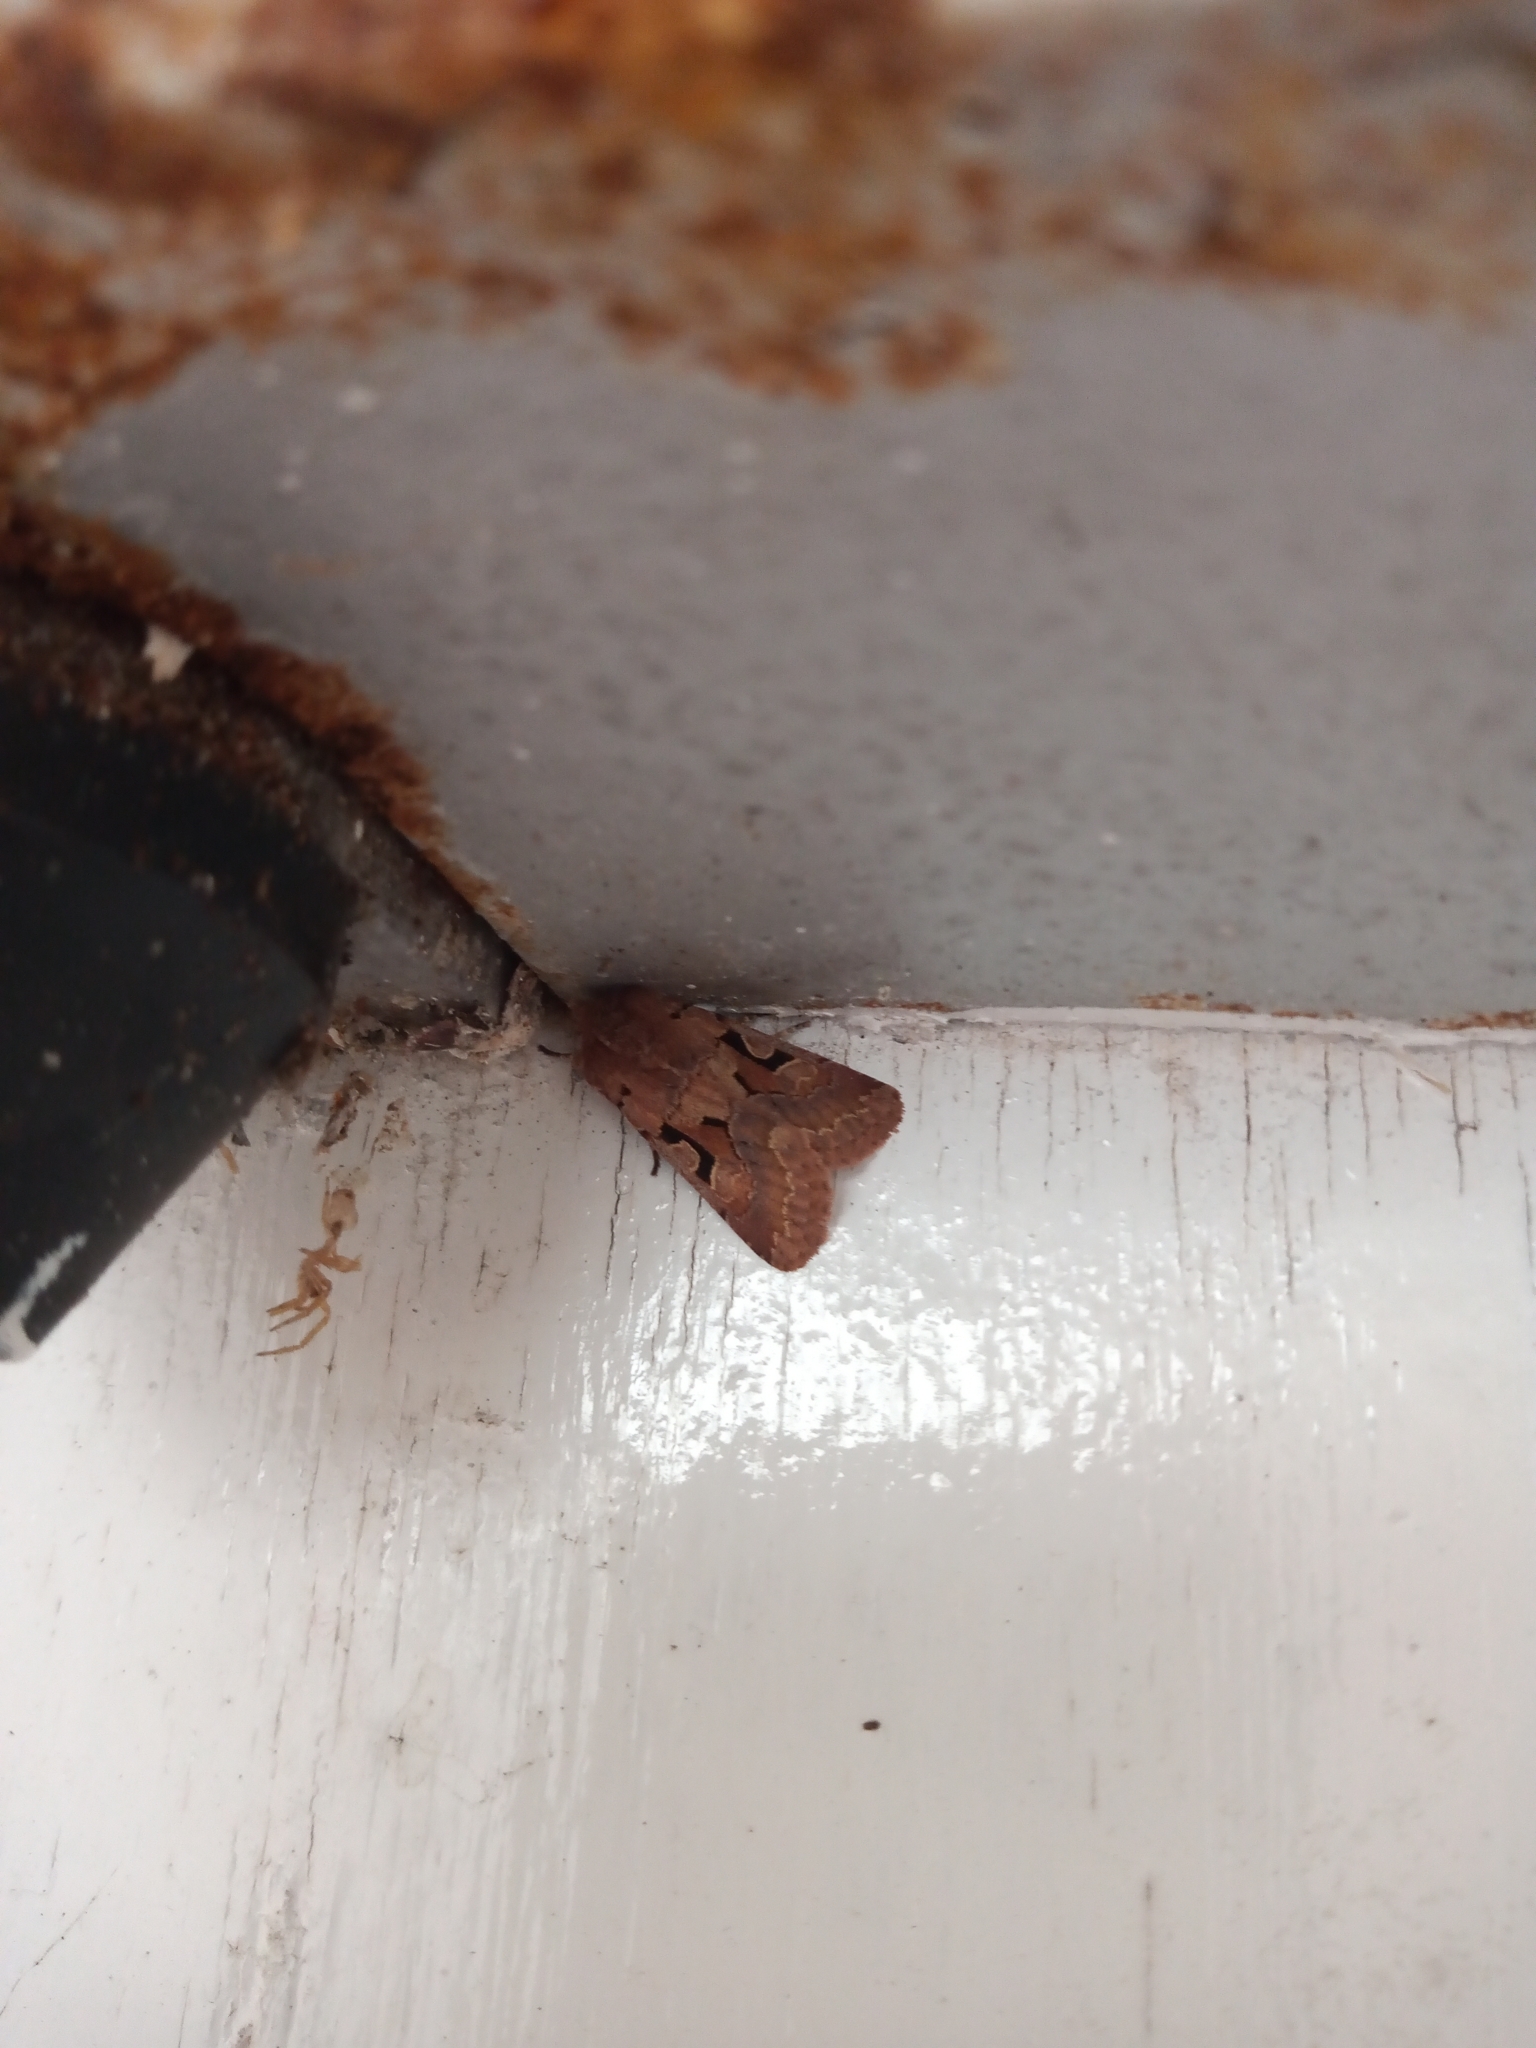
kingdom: Animalia
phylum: Arthropoda
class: Insecta
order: Lepidoptera
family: Noctuidae
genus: Orthosia
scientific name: Orthosia gothica
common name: Hebrew character
